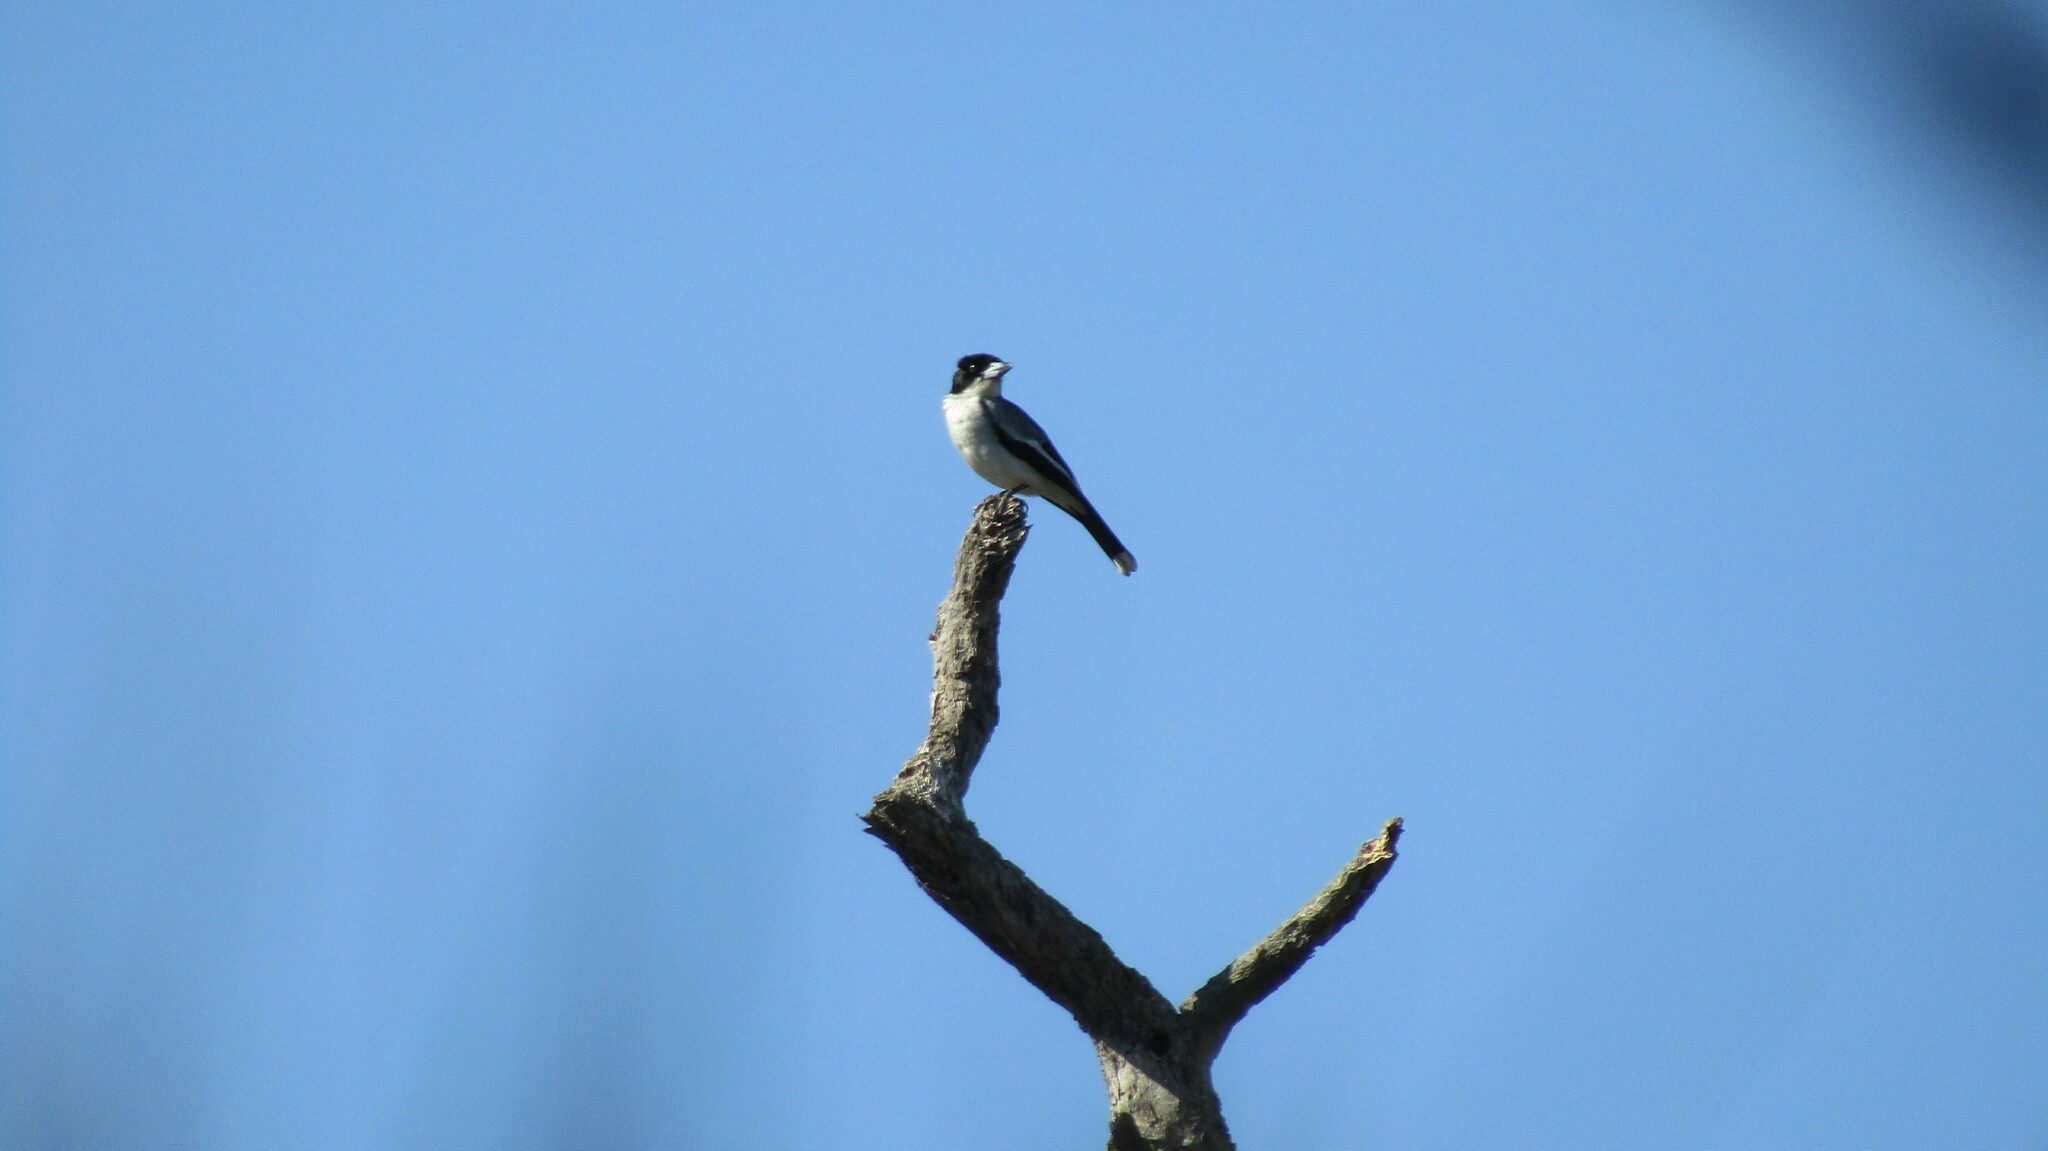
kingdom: Animalia
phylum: Chordata
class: Aves
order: Passeriformes
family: Cracticidae
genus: Cracticus
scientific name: Cracticus torquatus
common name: Grey butcherbird
